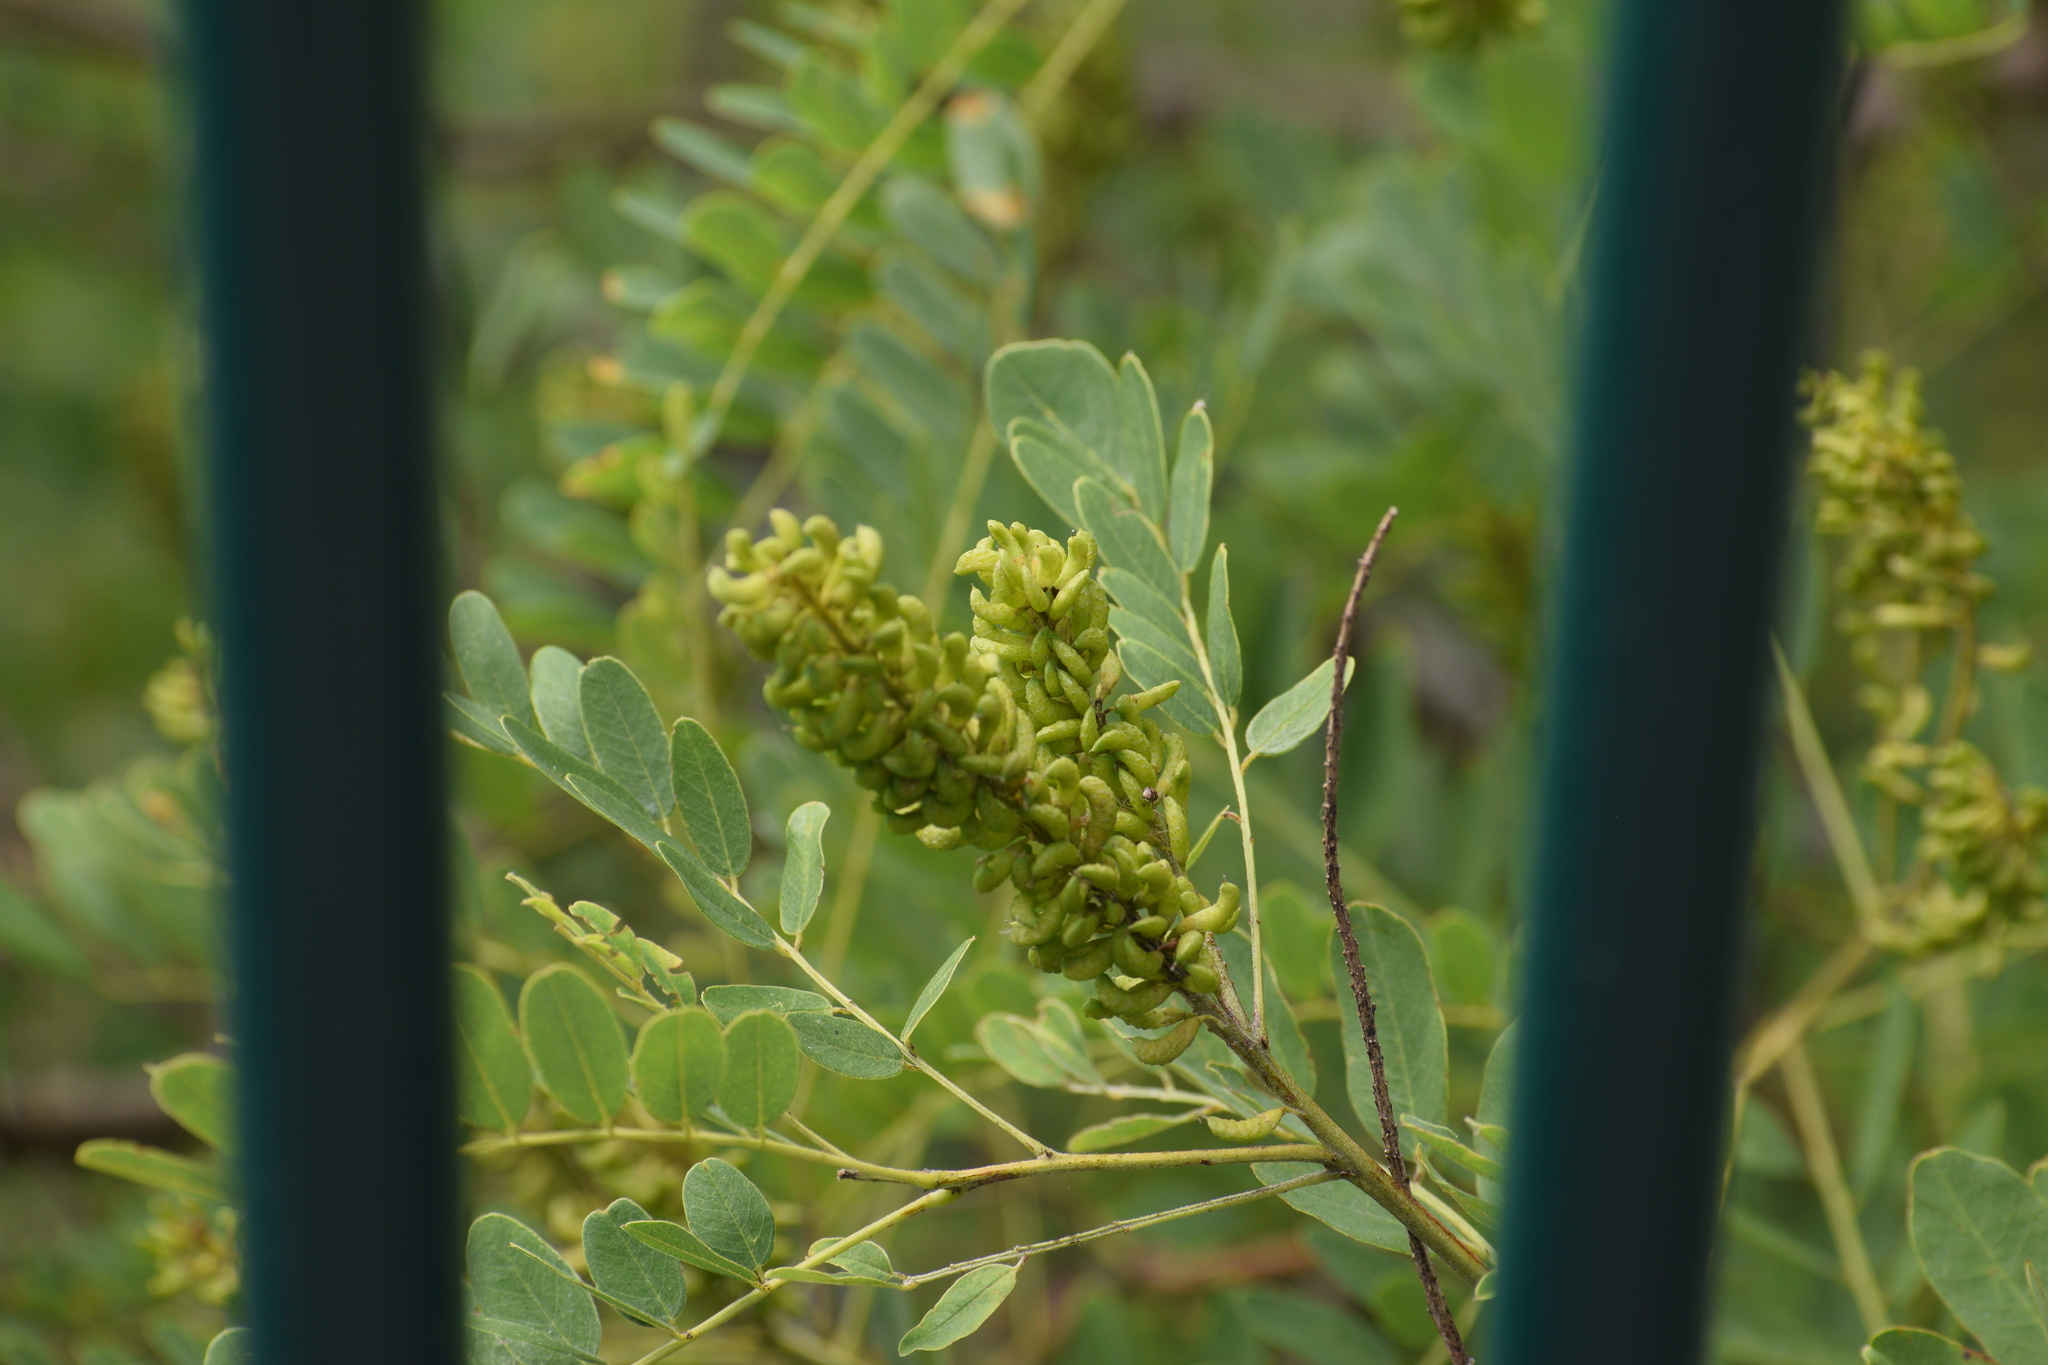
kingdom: Plantae
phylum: Tracheophyta
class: Magnoliopsida
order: Fabales
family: Fabaceae
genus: Amorpha
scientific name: Amorpha fruticosa
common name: False indigo
